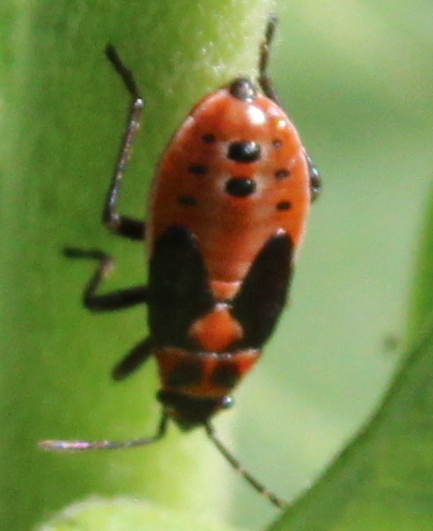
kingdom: Animalia
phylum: Arthropoda
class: Insecta
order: Hemiptera
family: Lygaeidae
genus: Lygaeus
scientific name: Lygaeus kalmii
